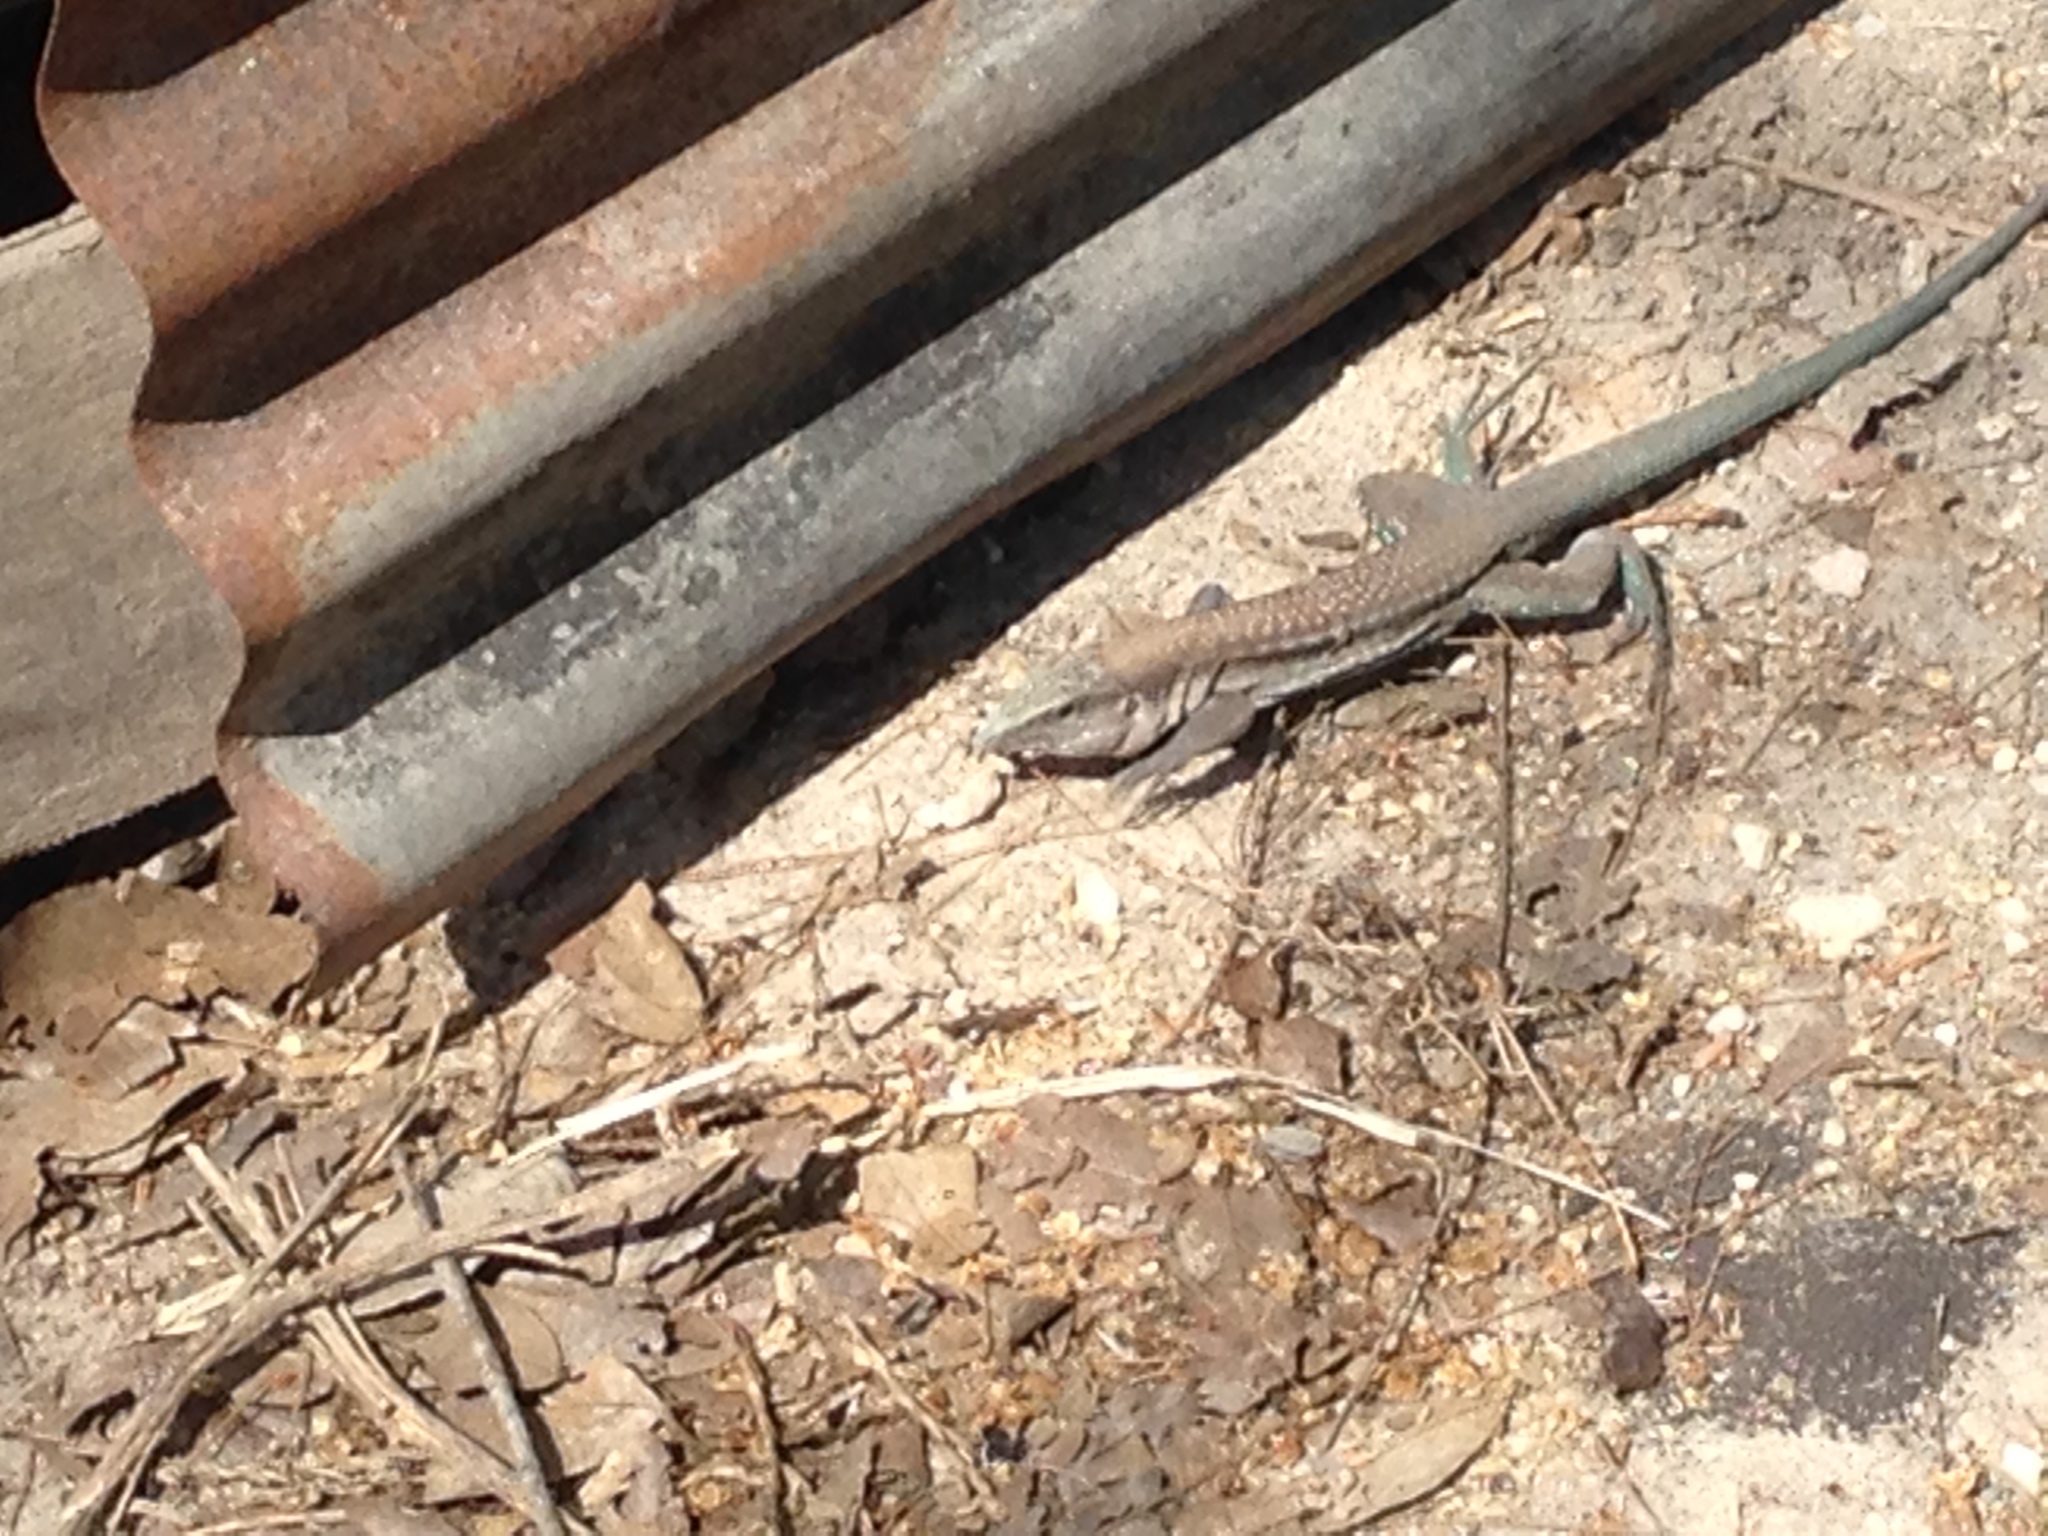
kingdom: Animalia
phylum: Chordata
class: Squamata
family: Teiidae
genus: Aspidoscelis
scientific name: Aspidoscelis guttatus
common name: Mexican racerunner
